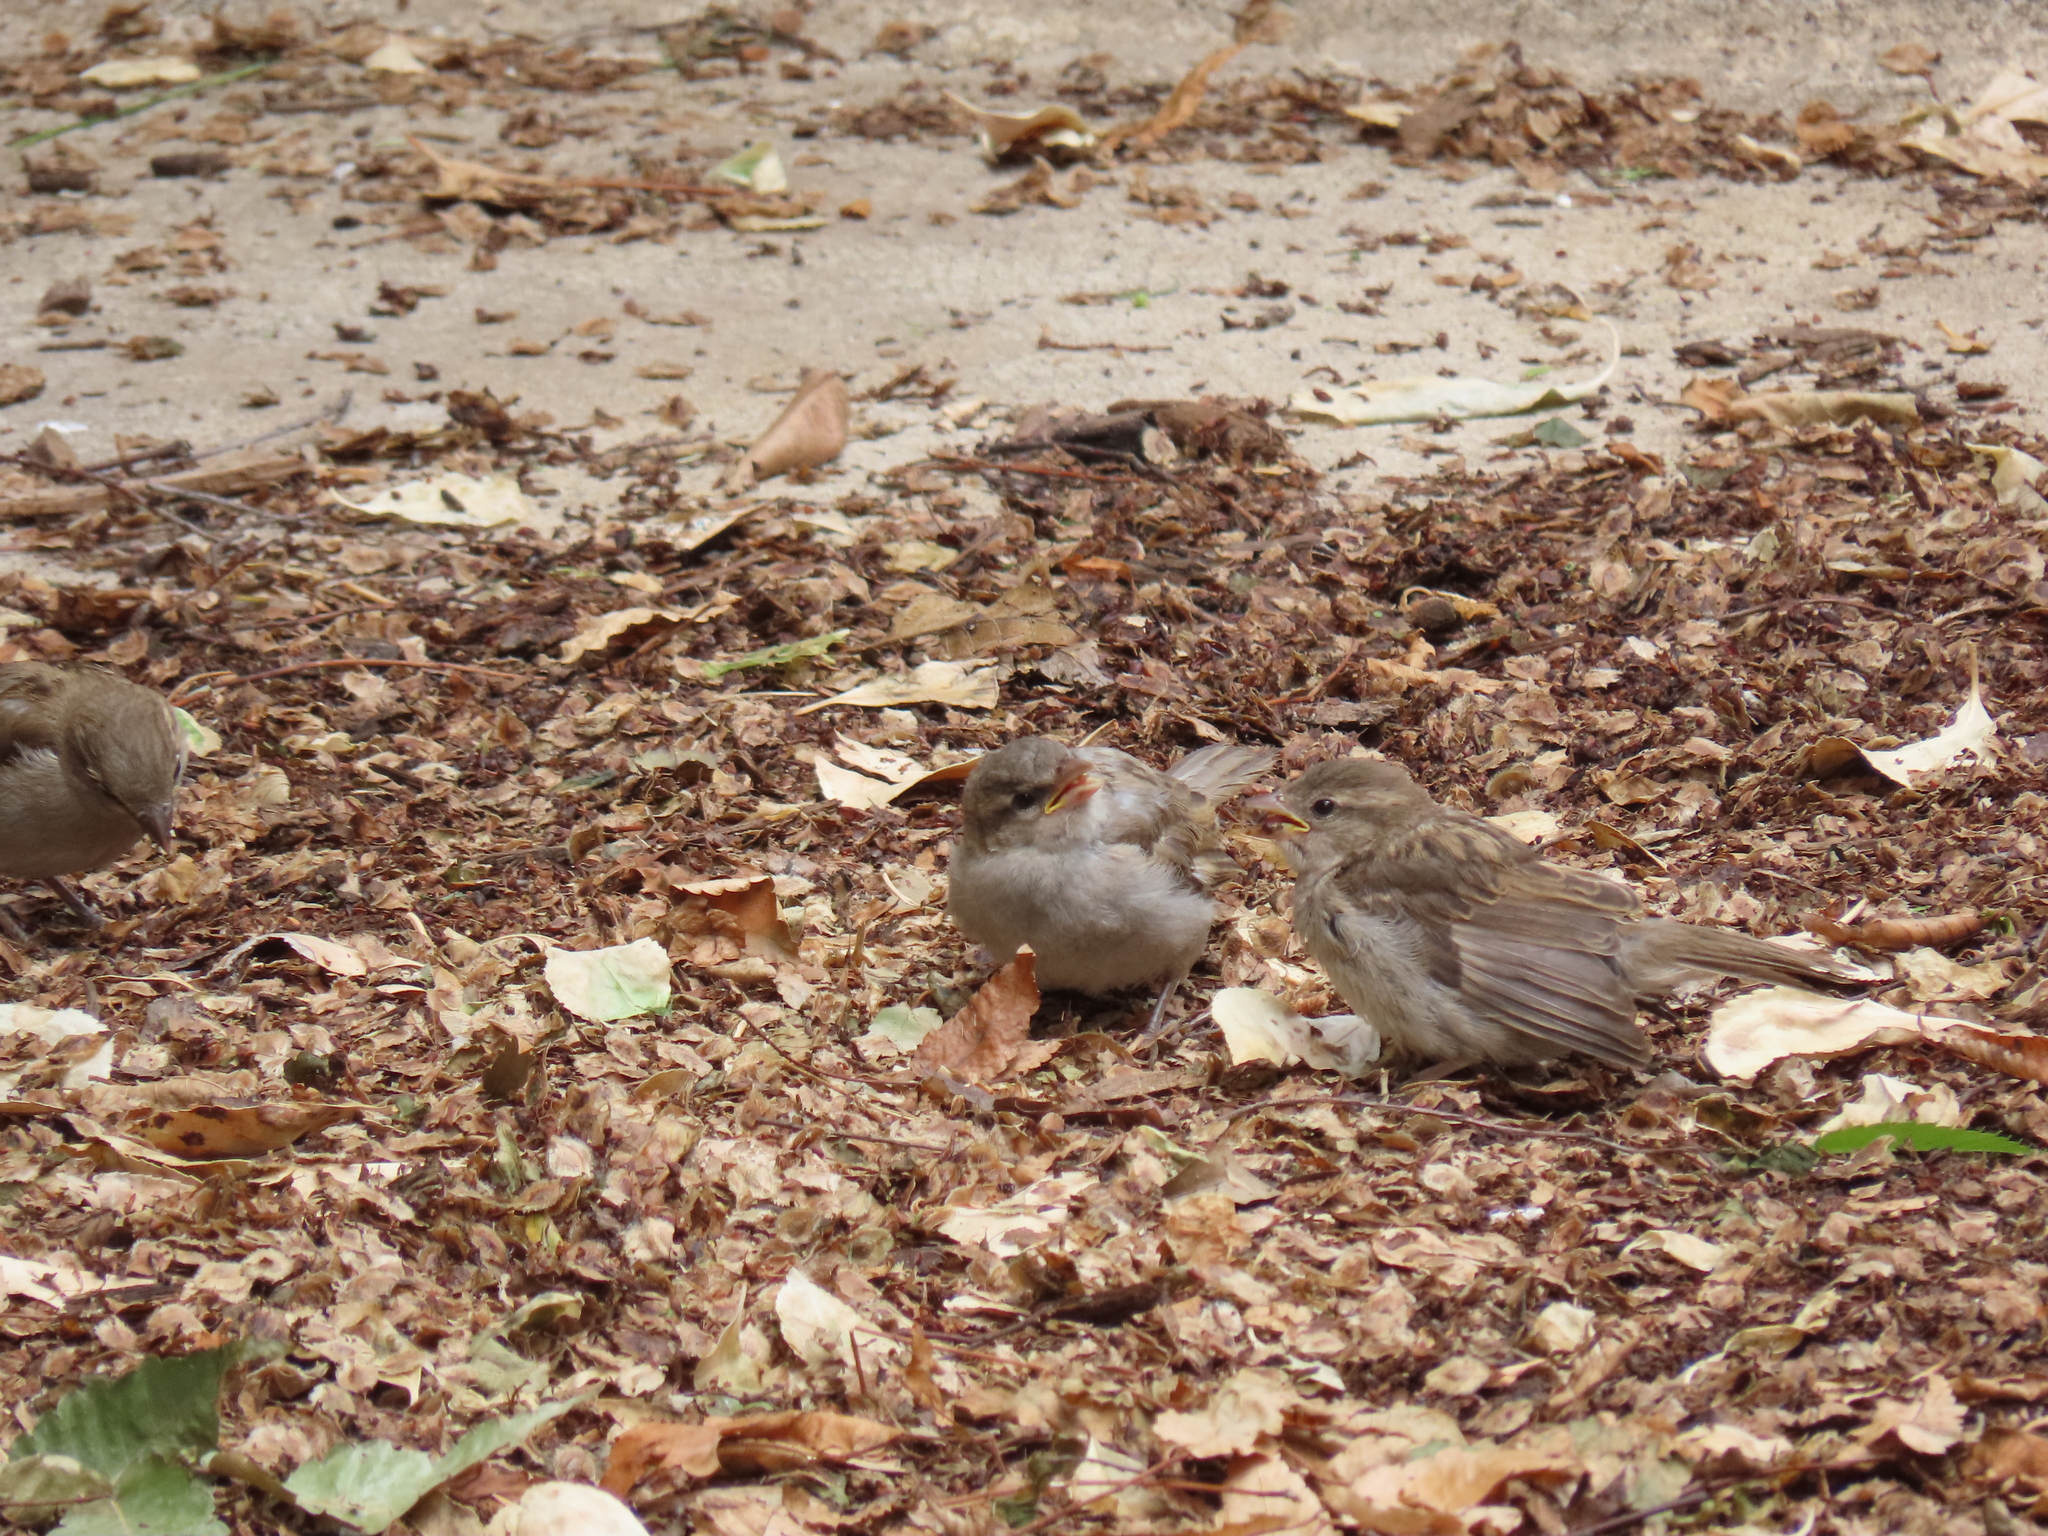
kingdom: Animalia
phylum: Chordata
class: Aves
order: Passeriformes
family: Passeridae
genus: Passer
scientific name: Passer domesticus
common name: House sparrow
